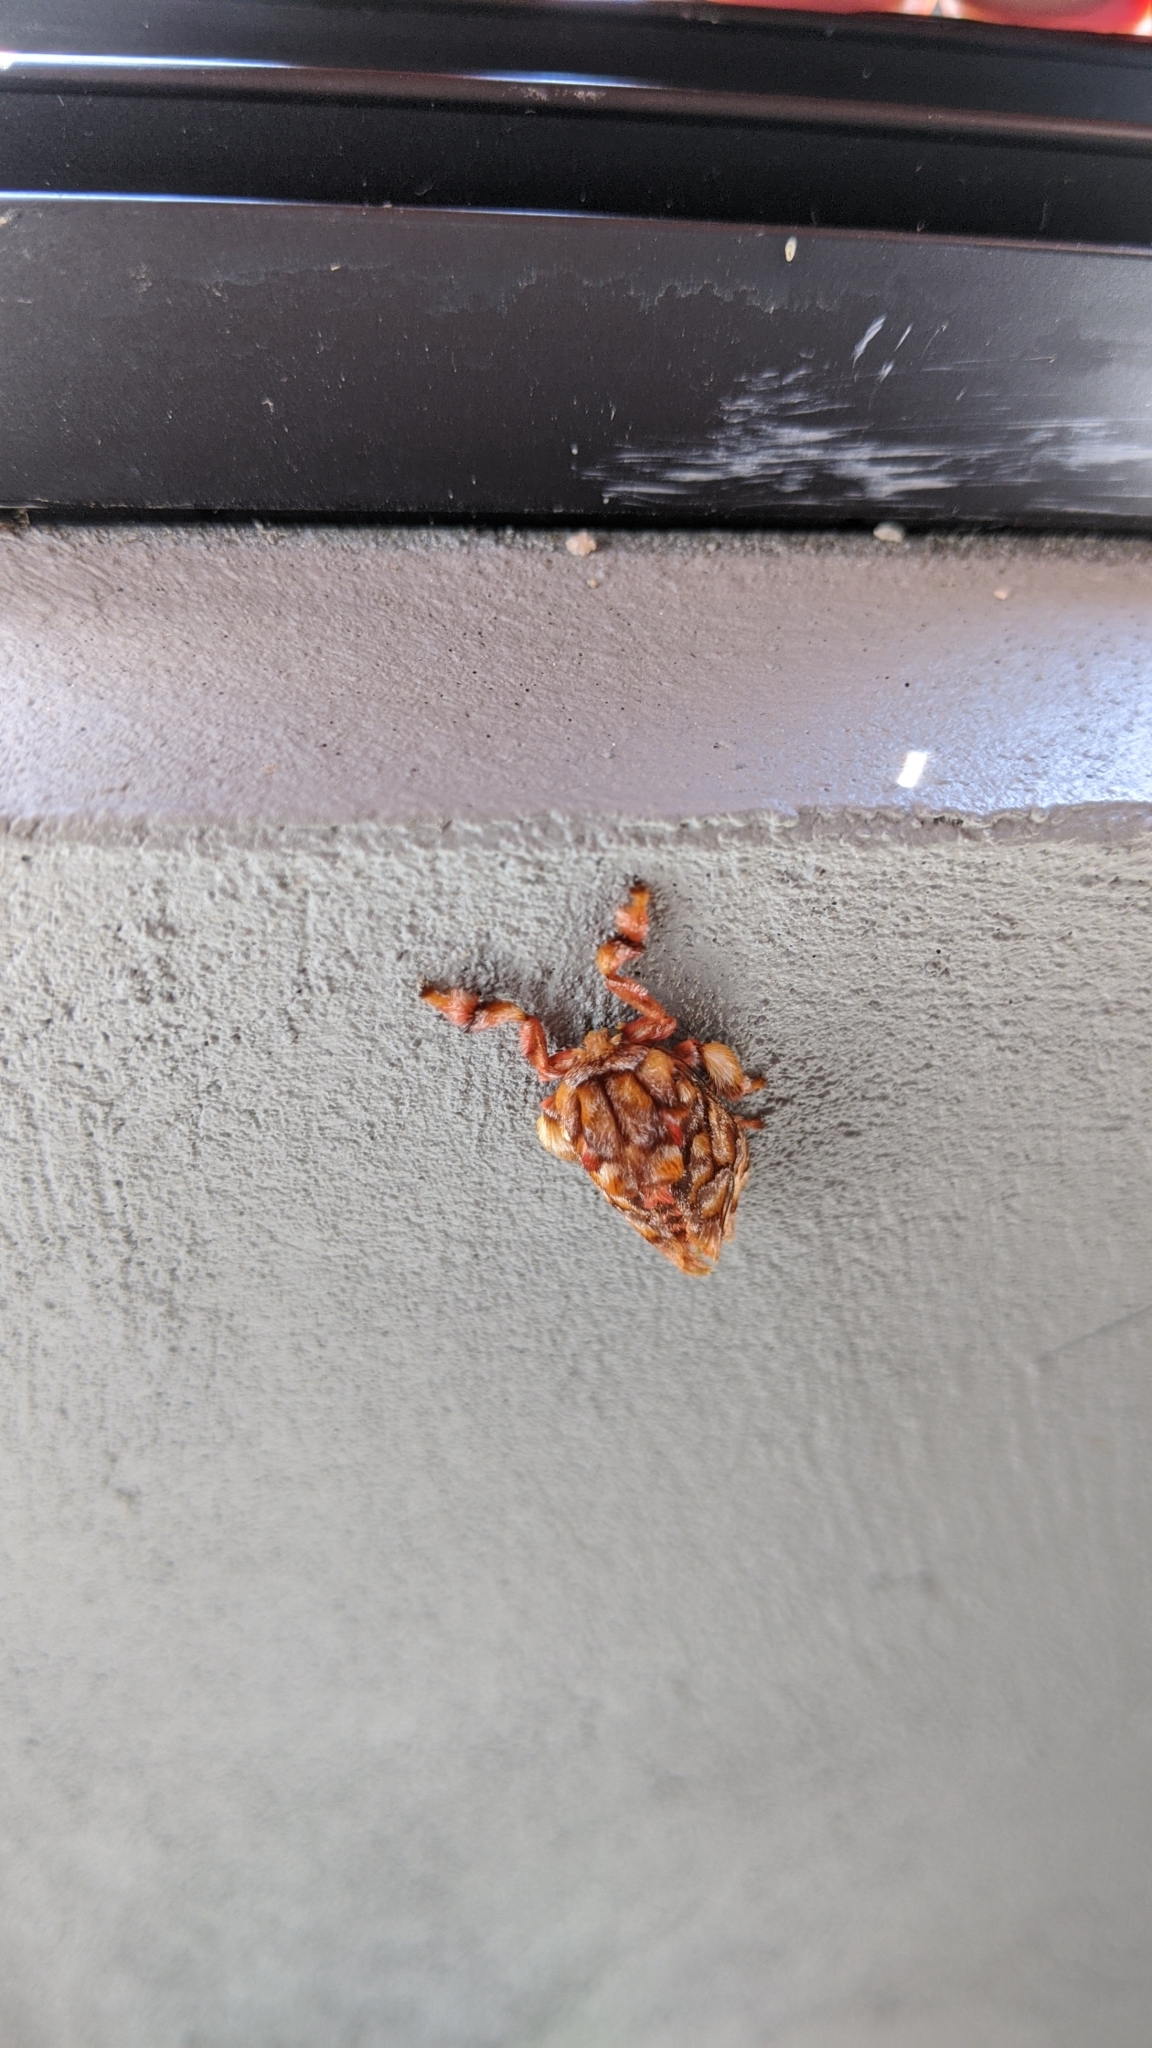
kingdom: Animalia
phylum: Arthropoda
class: Insecta
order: Lepidoptera
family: Limacodidae
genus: Phobetron
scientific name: Phobetron hipparchia
